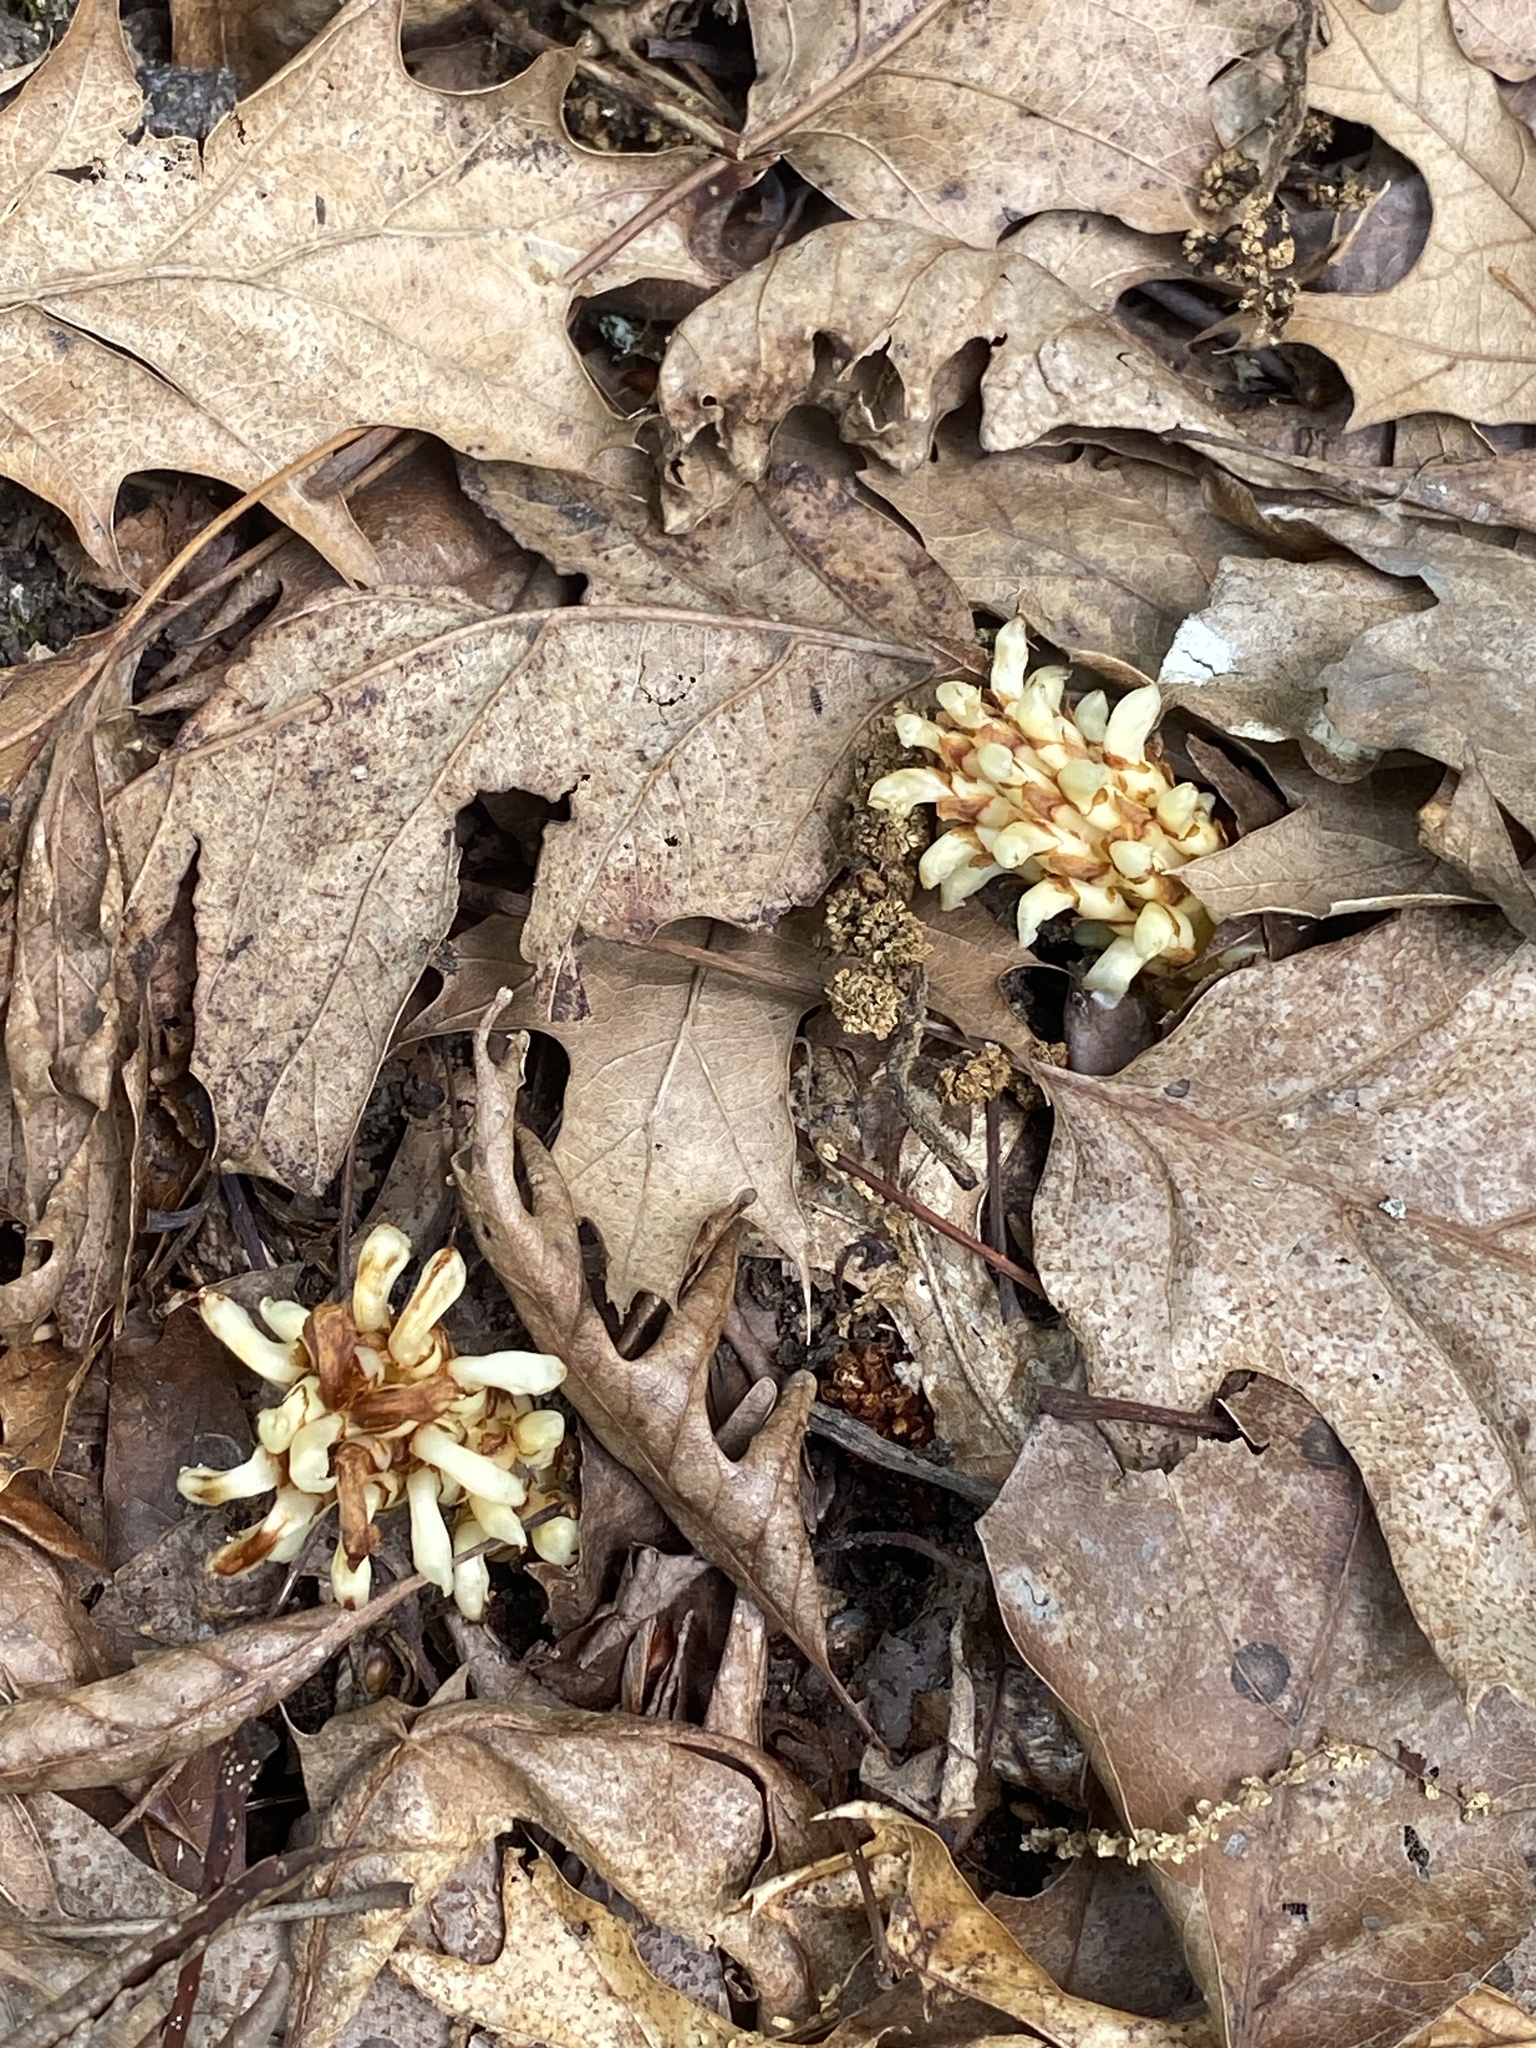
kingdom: Plantae
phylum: Tracheophyta
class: Magnoliopsida
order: Lamiales
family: Orobanchaceae
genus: Conopholis
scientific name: Conopholis americana
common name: American cancer-root
